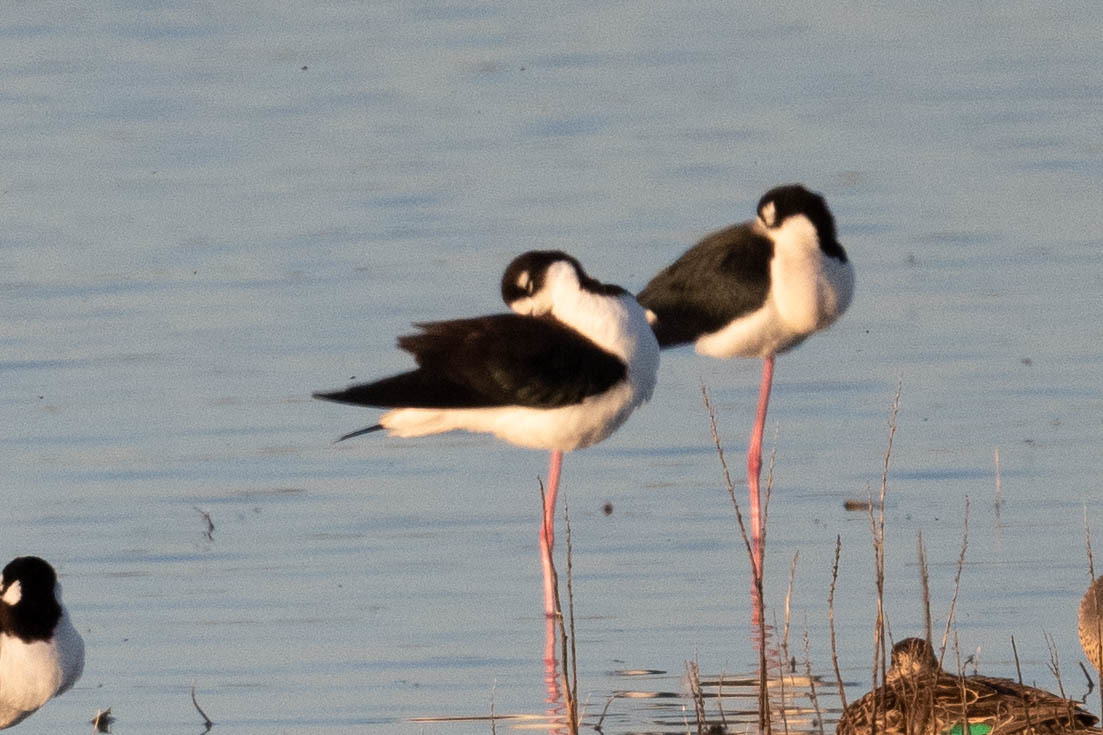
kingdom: Animalia
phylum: Chordata
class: Aves
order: Charadriiformes
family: Recurvirostridae
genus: Himantopus
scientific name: Himantopus mexicanus
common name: Black-necked stilt
